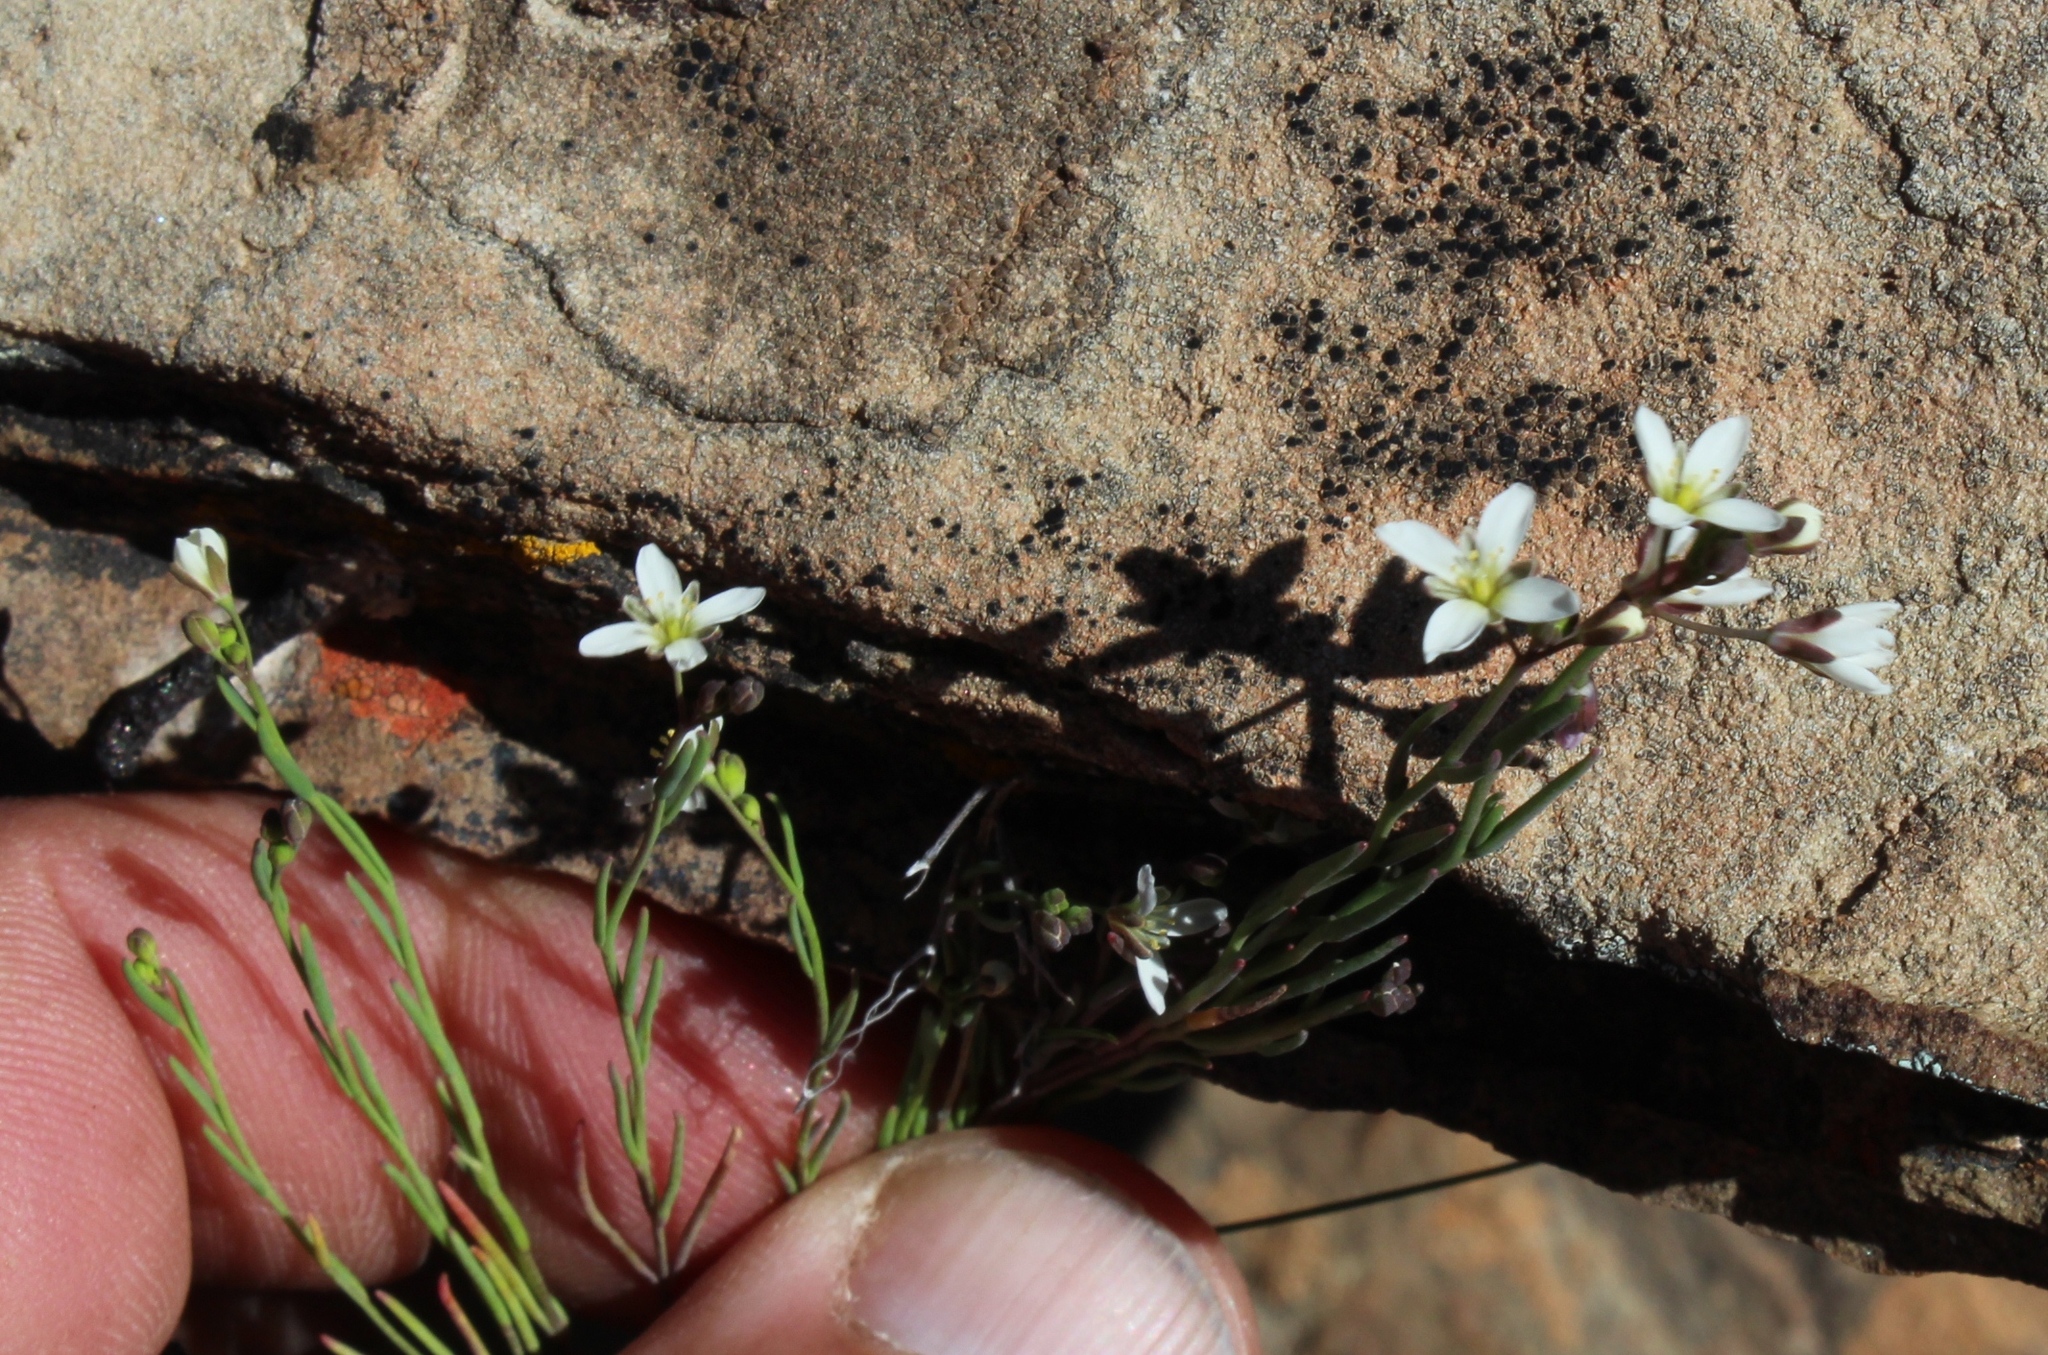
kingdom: Plantae
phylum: Tracheophyta
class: Magnoliopsida
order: Brassicales
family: Brassicaceae
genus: Heliophila
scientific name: Heliophila clarkii
